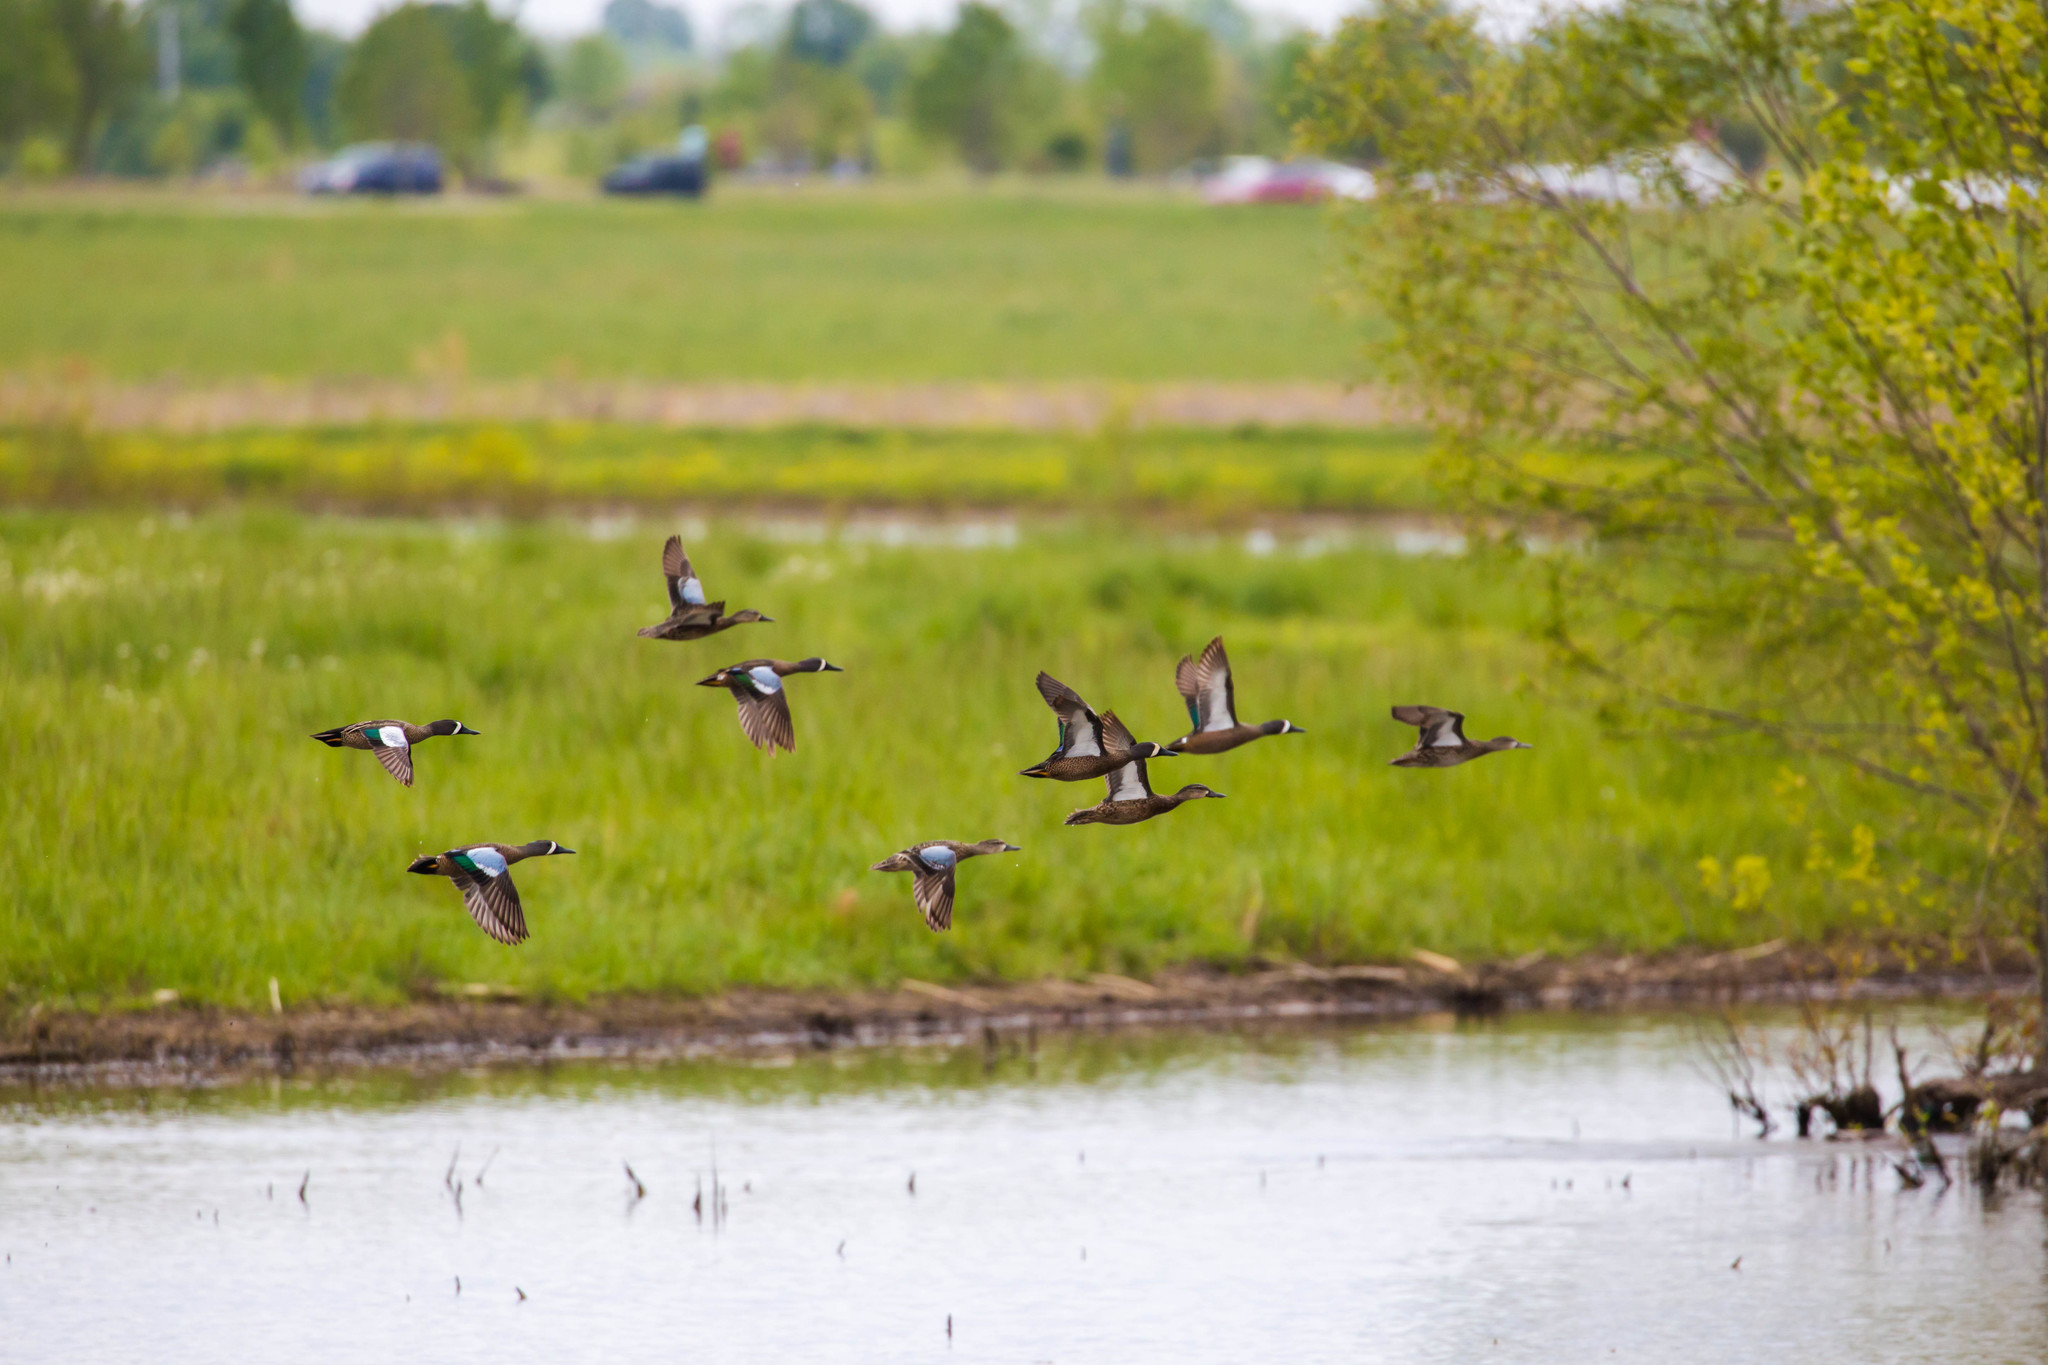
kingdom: Animalia
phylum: Chordata
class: Aves
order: Anseriformes
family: Anatidae
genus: Spatula
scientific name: Spatula discors
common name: Blue-winged teal
